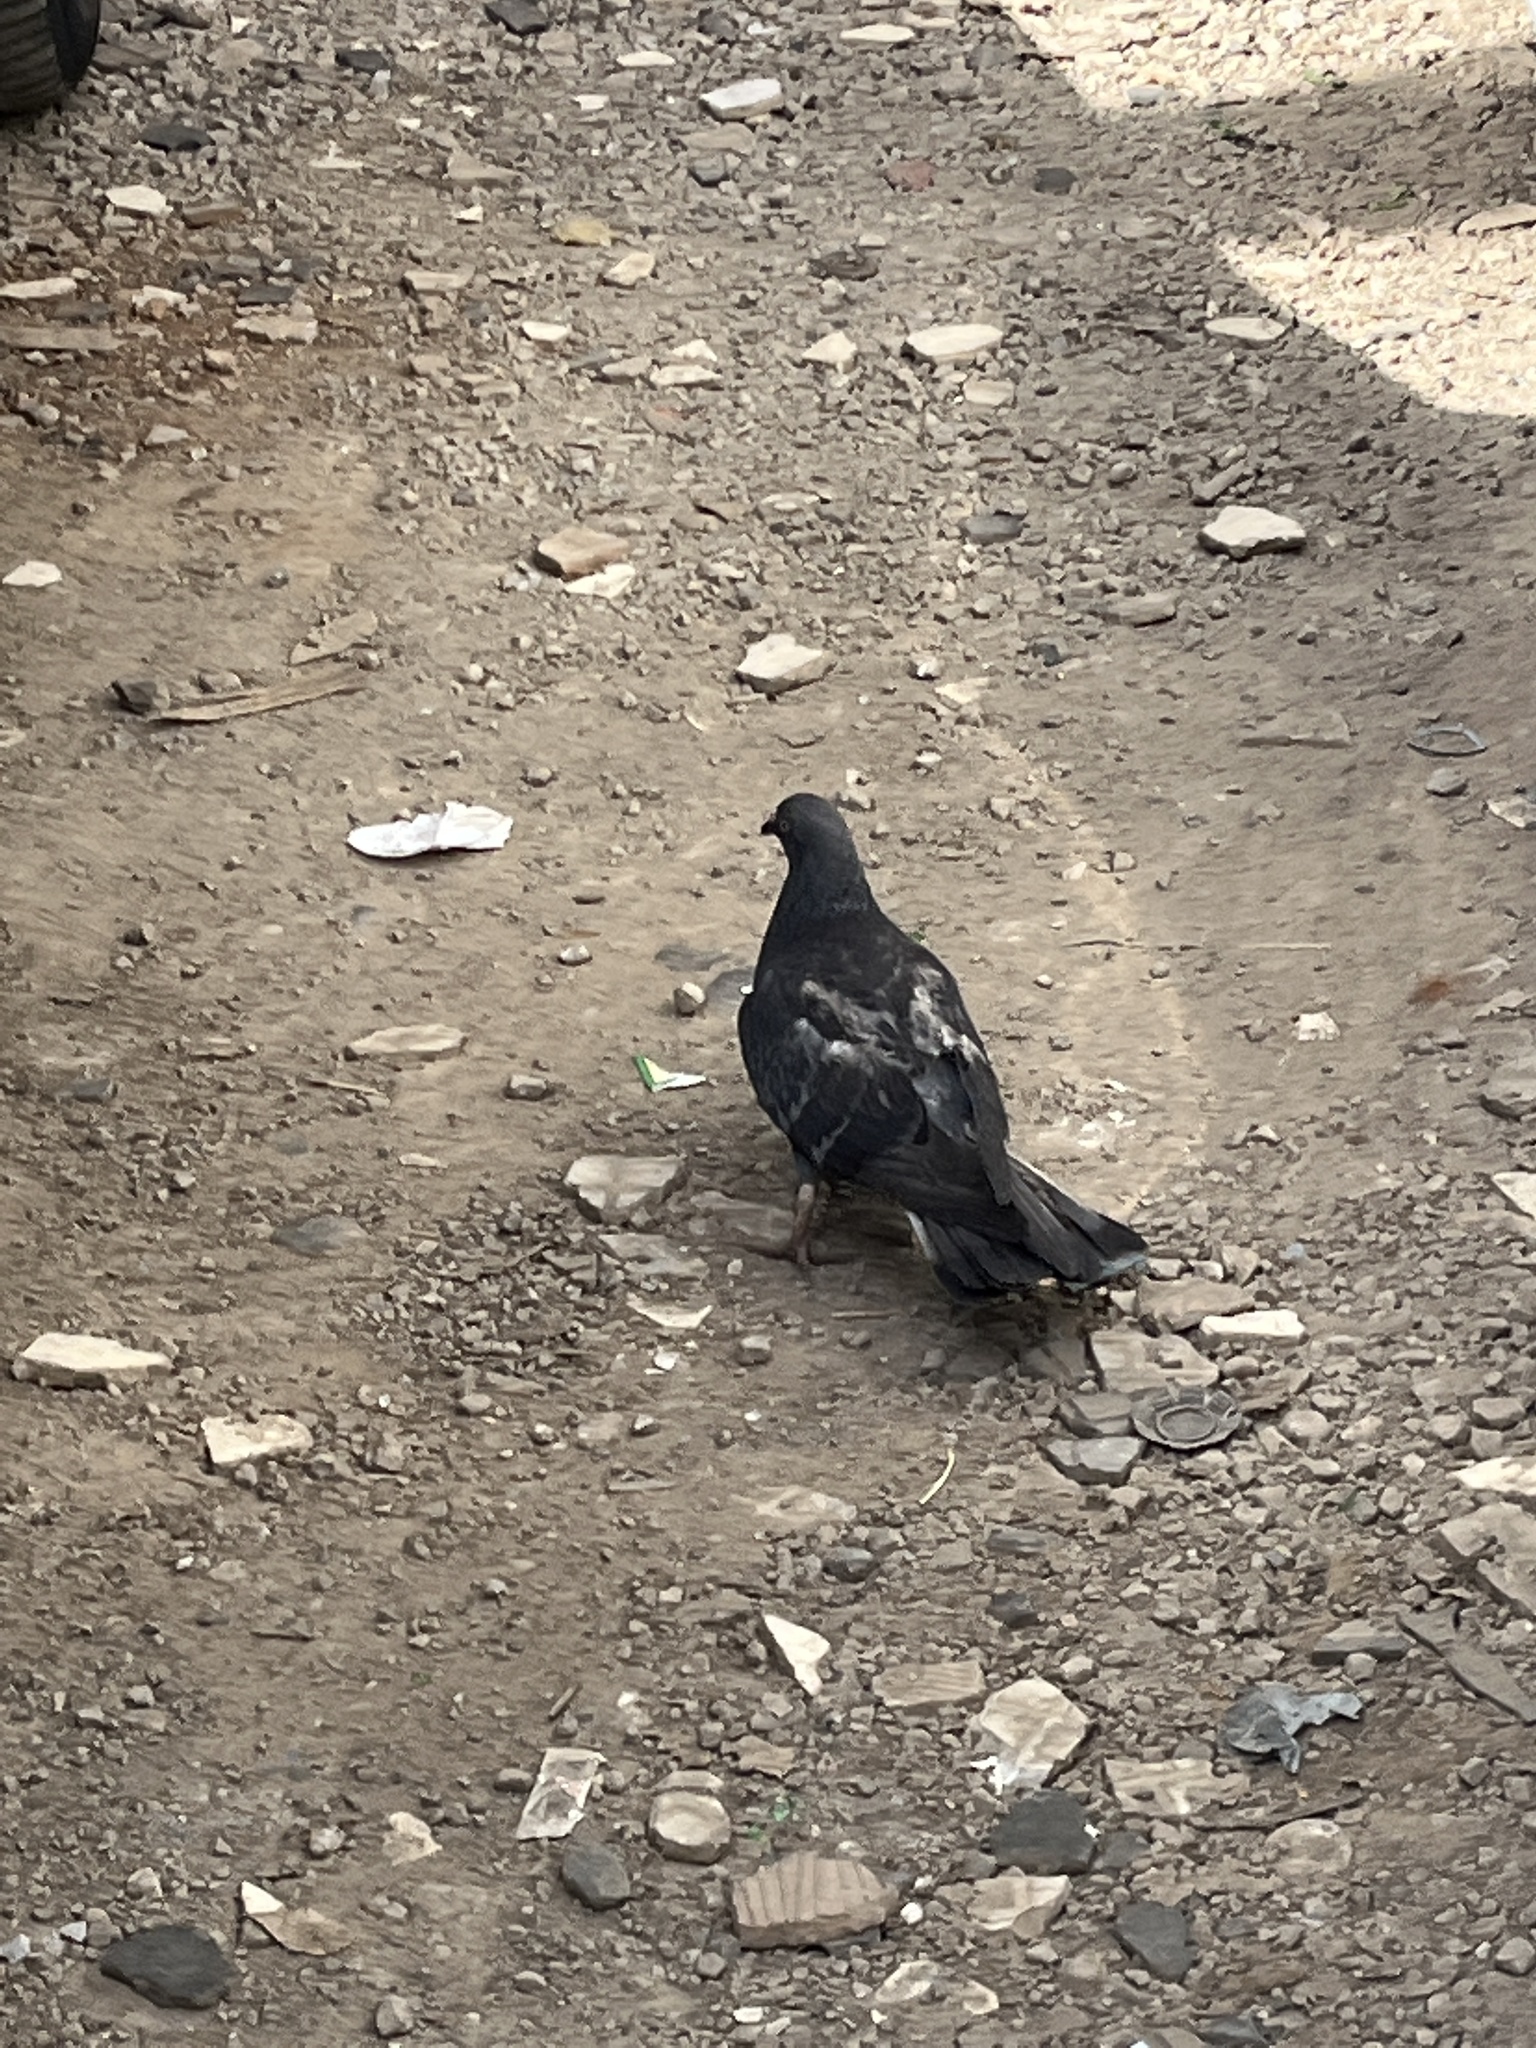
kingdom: Animalia
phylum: Chordata
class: Aves
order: Columbiformes
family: Columbidae
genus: Columba
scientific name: Columba livia
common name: Rock pigeon
